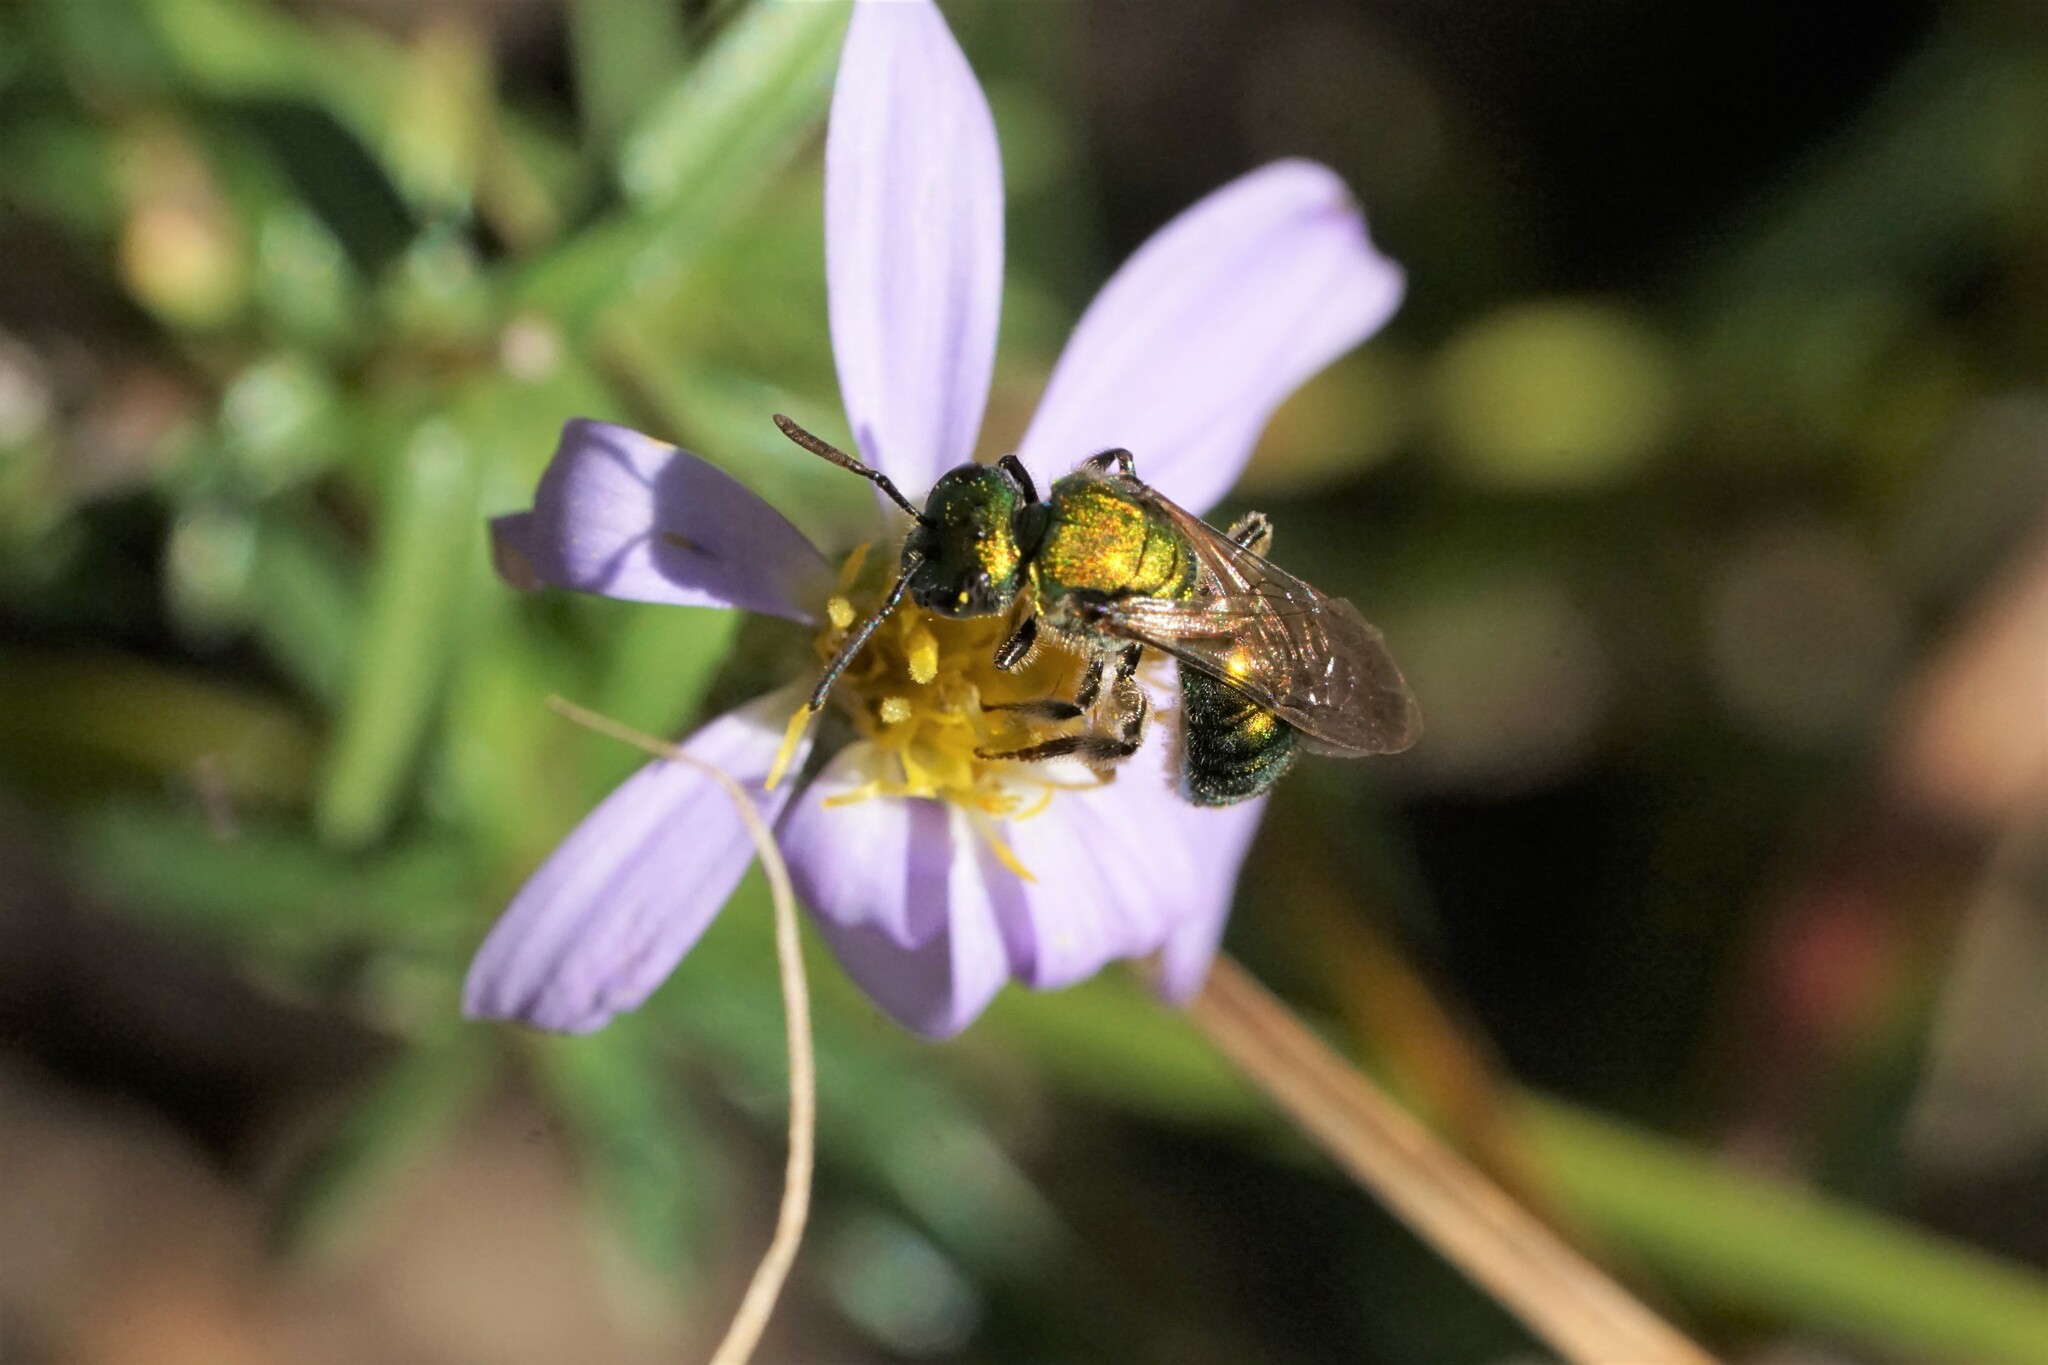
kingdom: Animalia
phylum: Arthropoda
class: Insecta
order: Hymenoptera
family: Halictidae
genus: Augochlora
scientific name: Augochlora pura
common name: Pure green sweat bee
